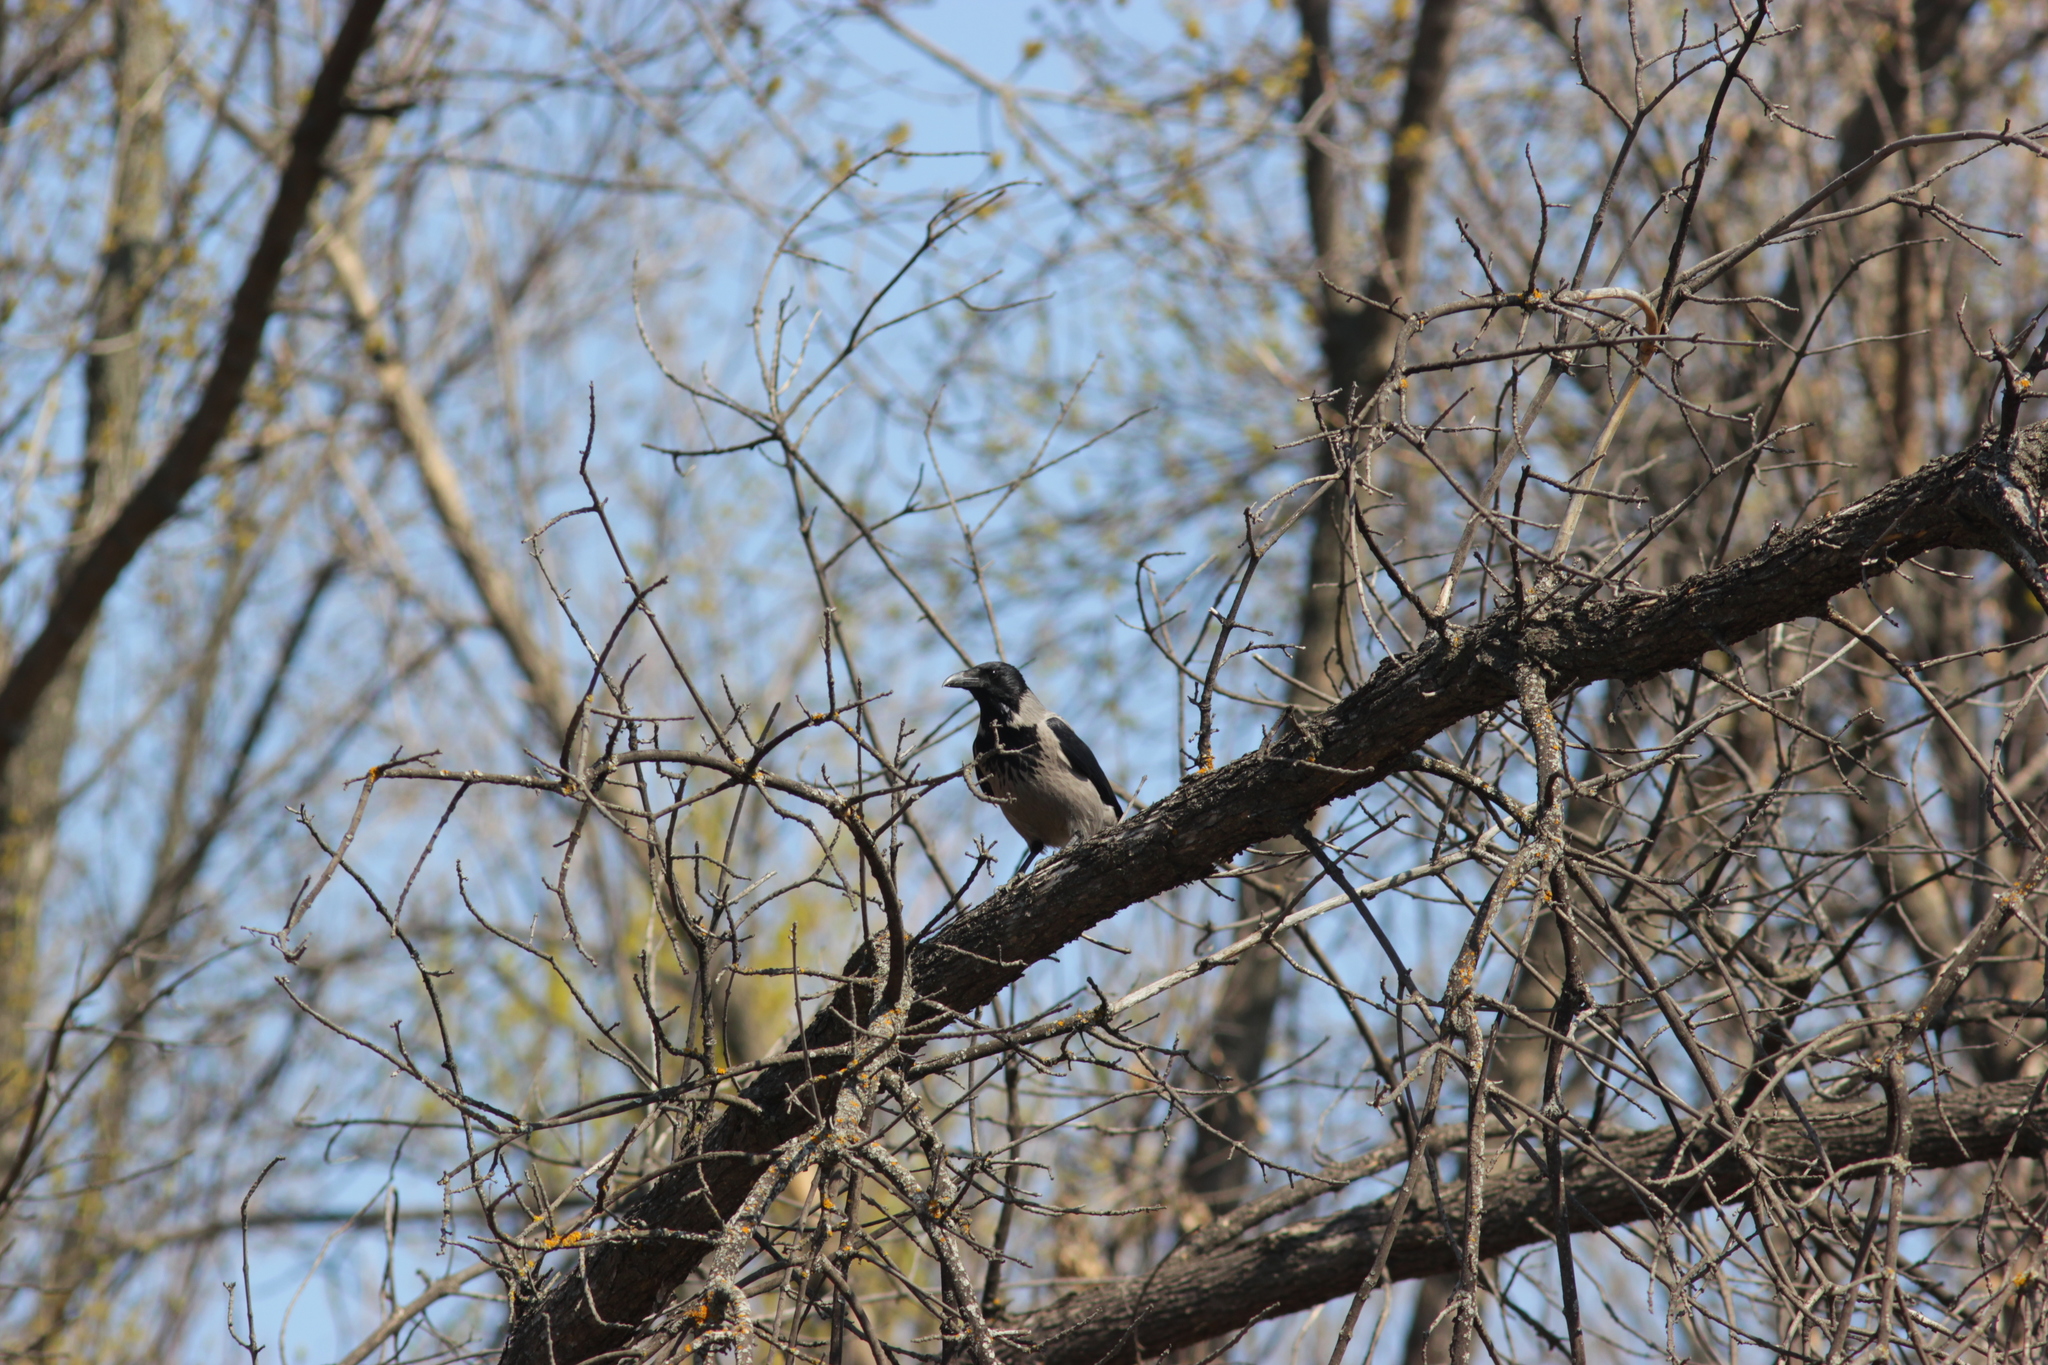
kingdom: Animalia
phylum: Chordata
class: Aves
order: Passeriformes
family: Corvidae
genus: Corvus
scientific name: Corvus cornix
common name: Hooded crow
